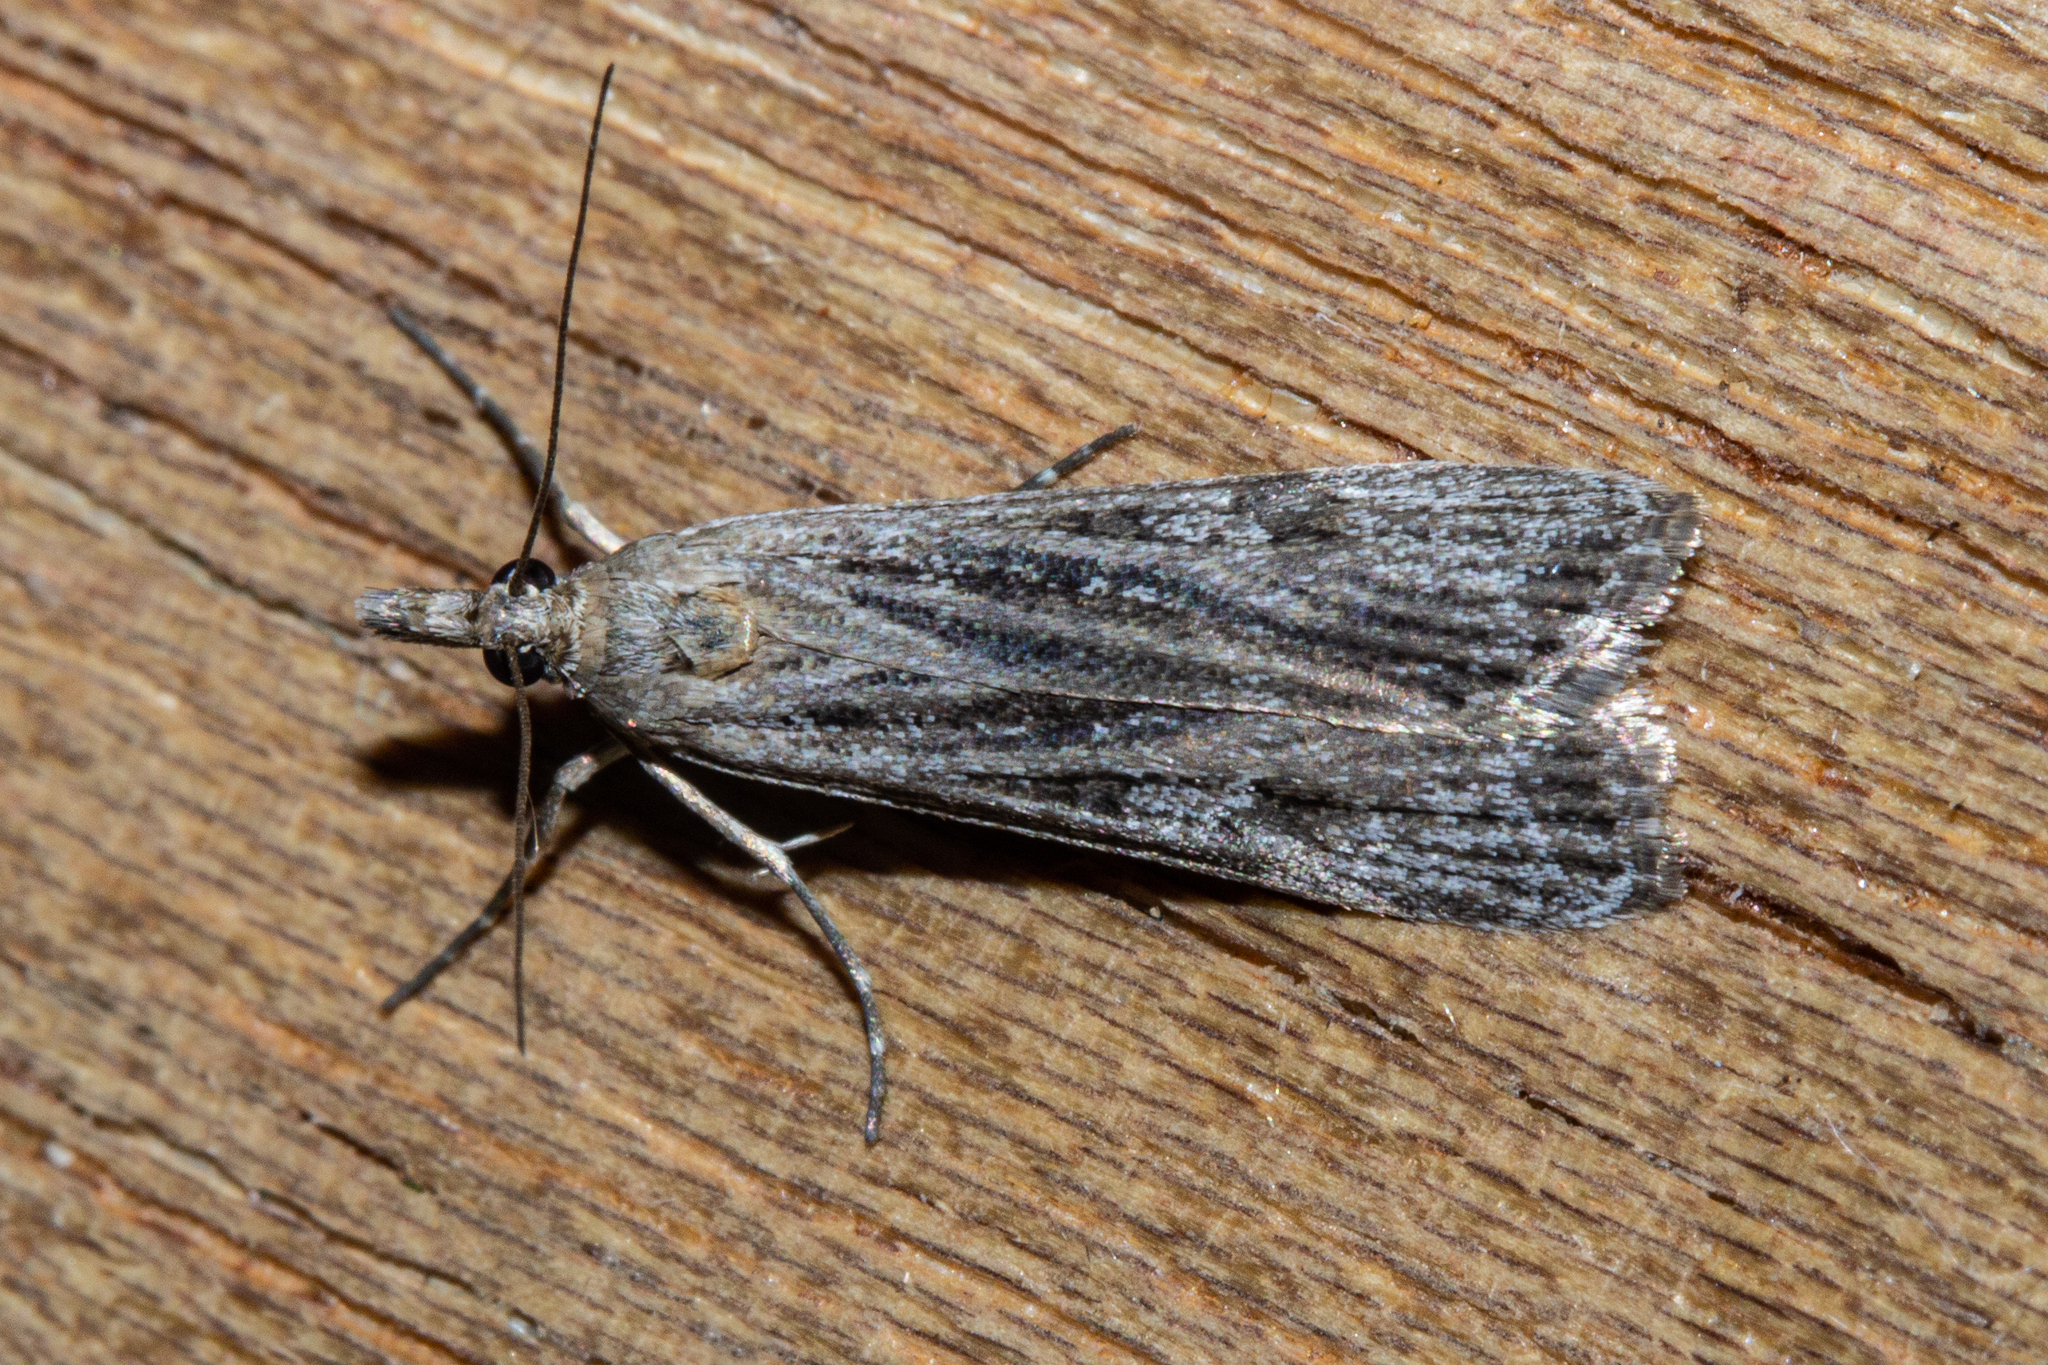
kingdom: Animalia
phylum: Arthropoda
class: Insecta
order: Lepidoptera
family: Crambidae
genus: Eudonia
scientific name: Eudonia atmogramma
